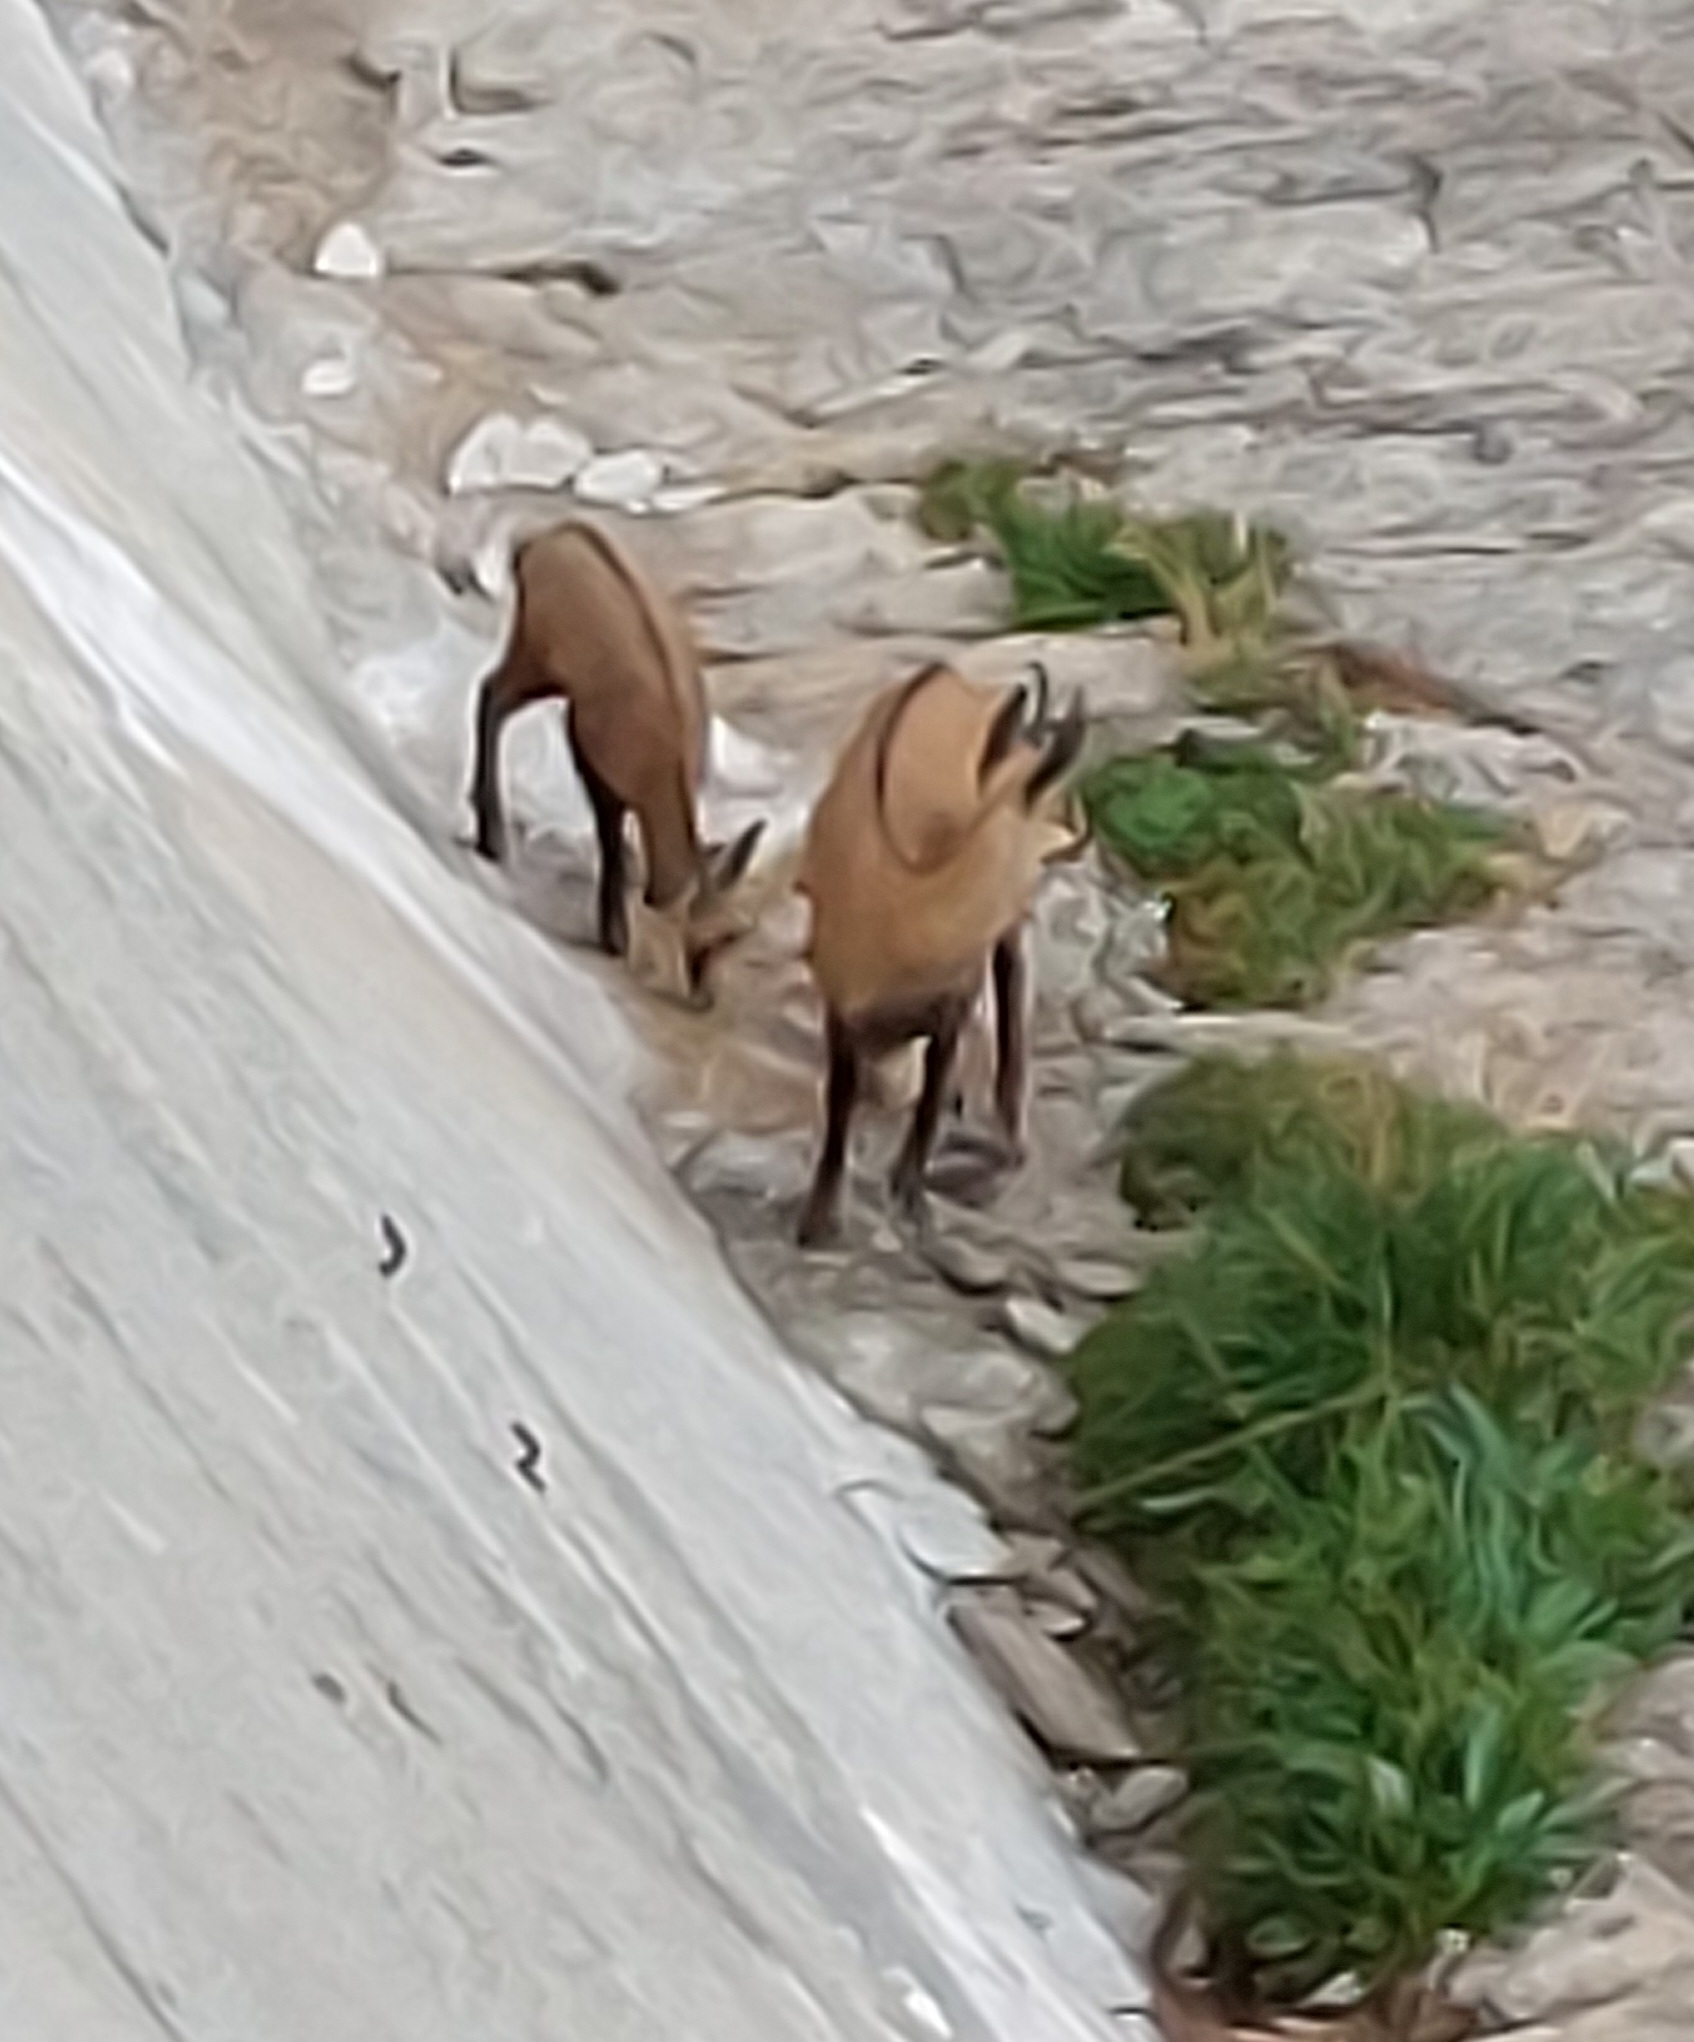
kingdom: Animalia
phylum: Chordata
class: Mammalia
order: Artiodactyla
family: Bovidae
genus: Rupicapra
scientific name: Rupicapra rupicapra
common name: Chamois
